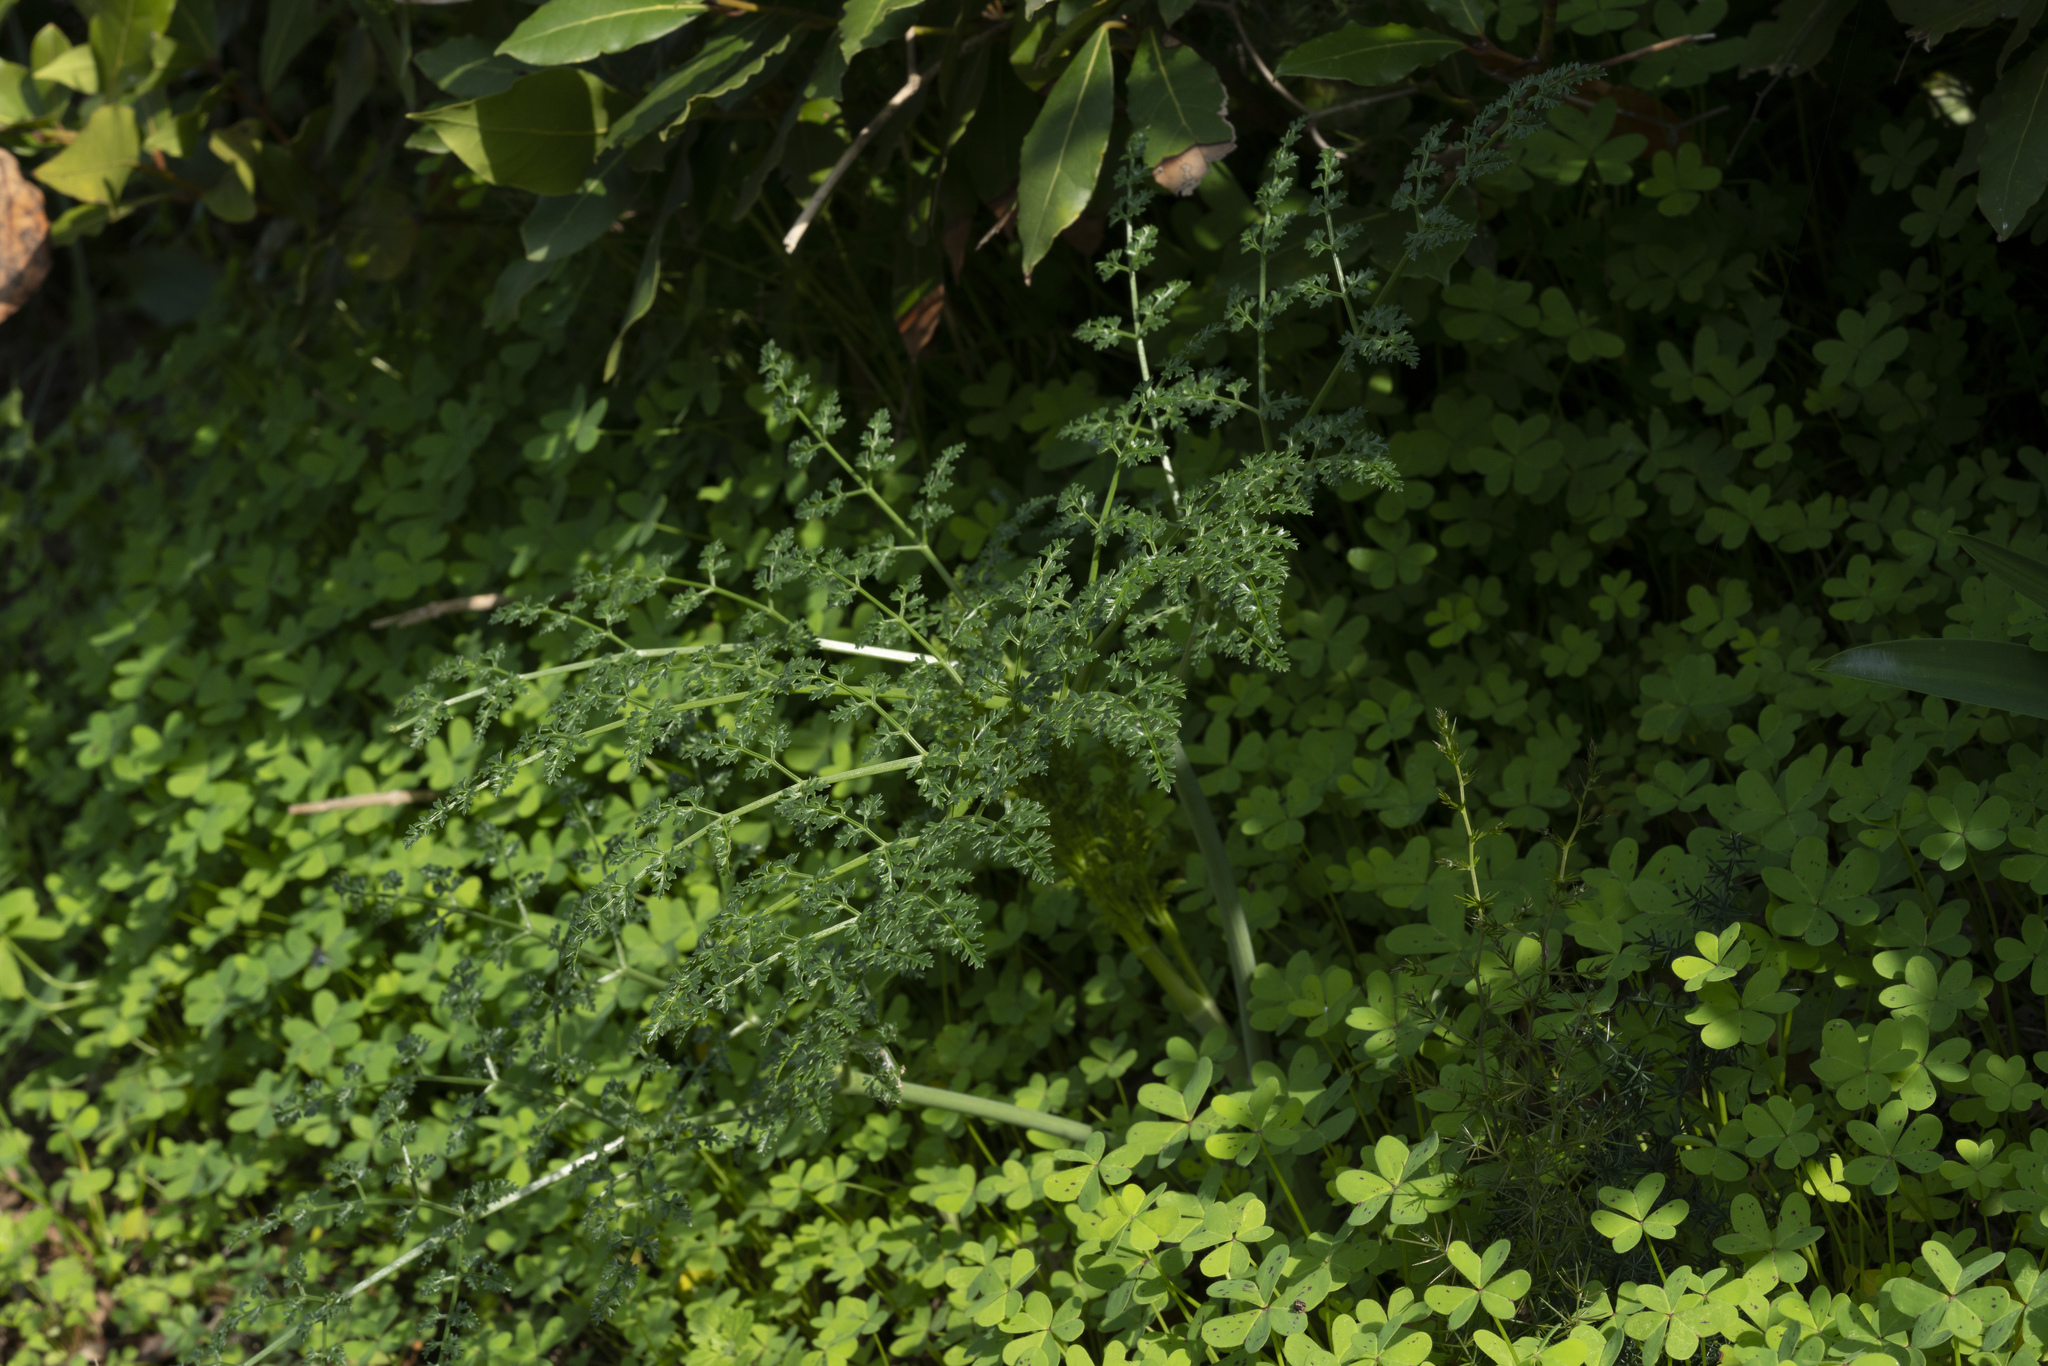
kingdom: Plantae
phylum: Tracheophyta
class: Magnoliopsida
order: Apiales
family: Apiaceae
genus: Ferula
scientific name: Ferula tingitana
